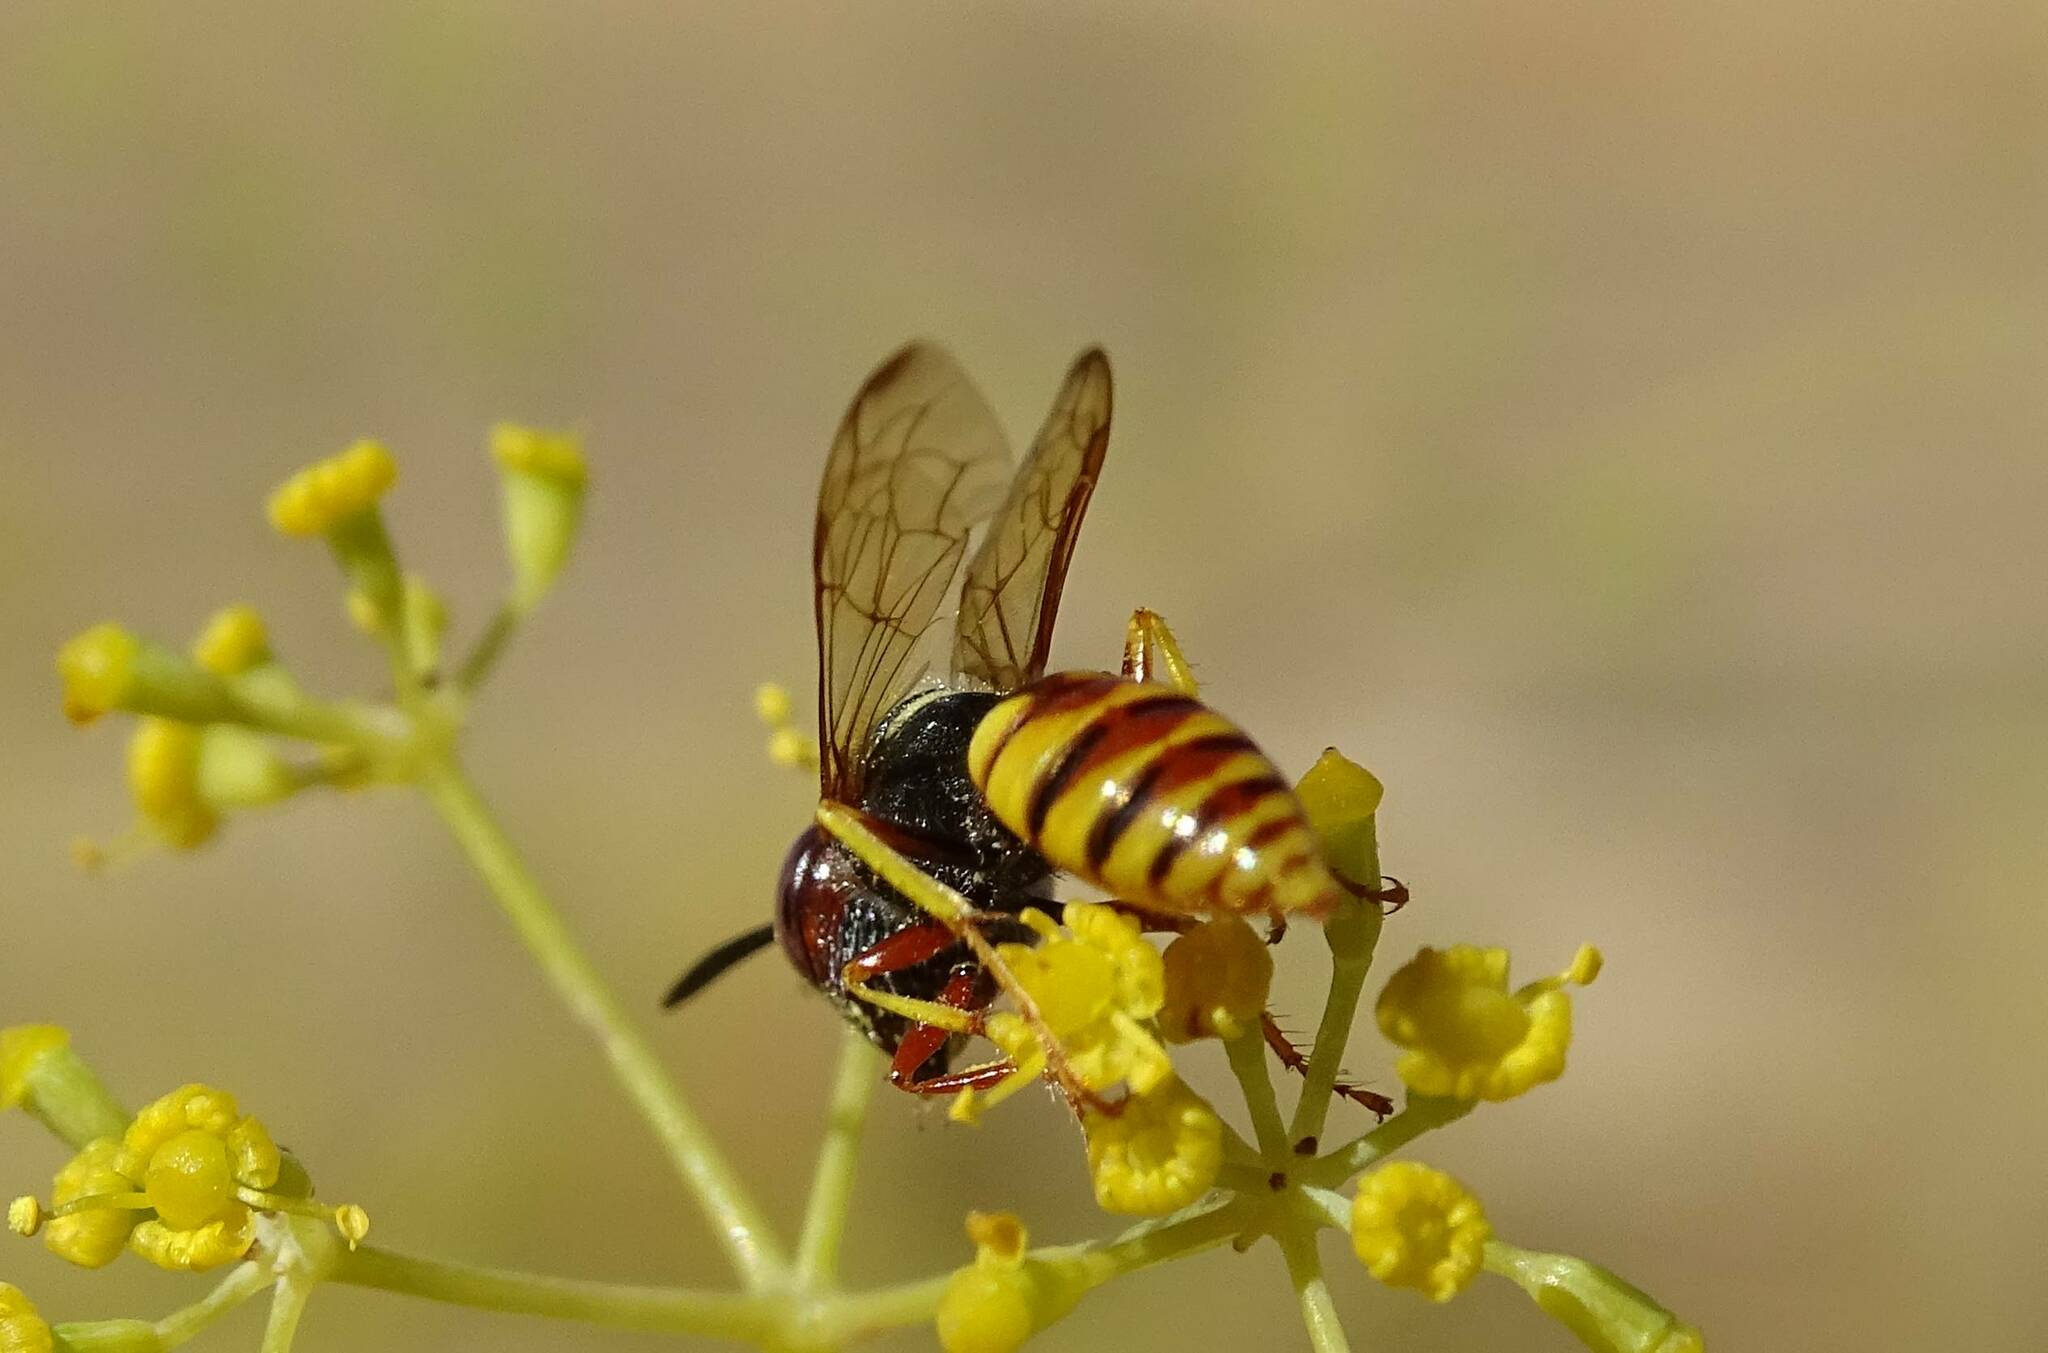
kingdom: Animalia
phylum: Arthropoda
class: Insecta
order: Hymenoptera
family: Crabronidae
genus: Philanthus
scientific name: Philanthus triangulum
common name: Bee wolf
